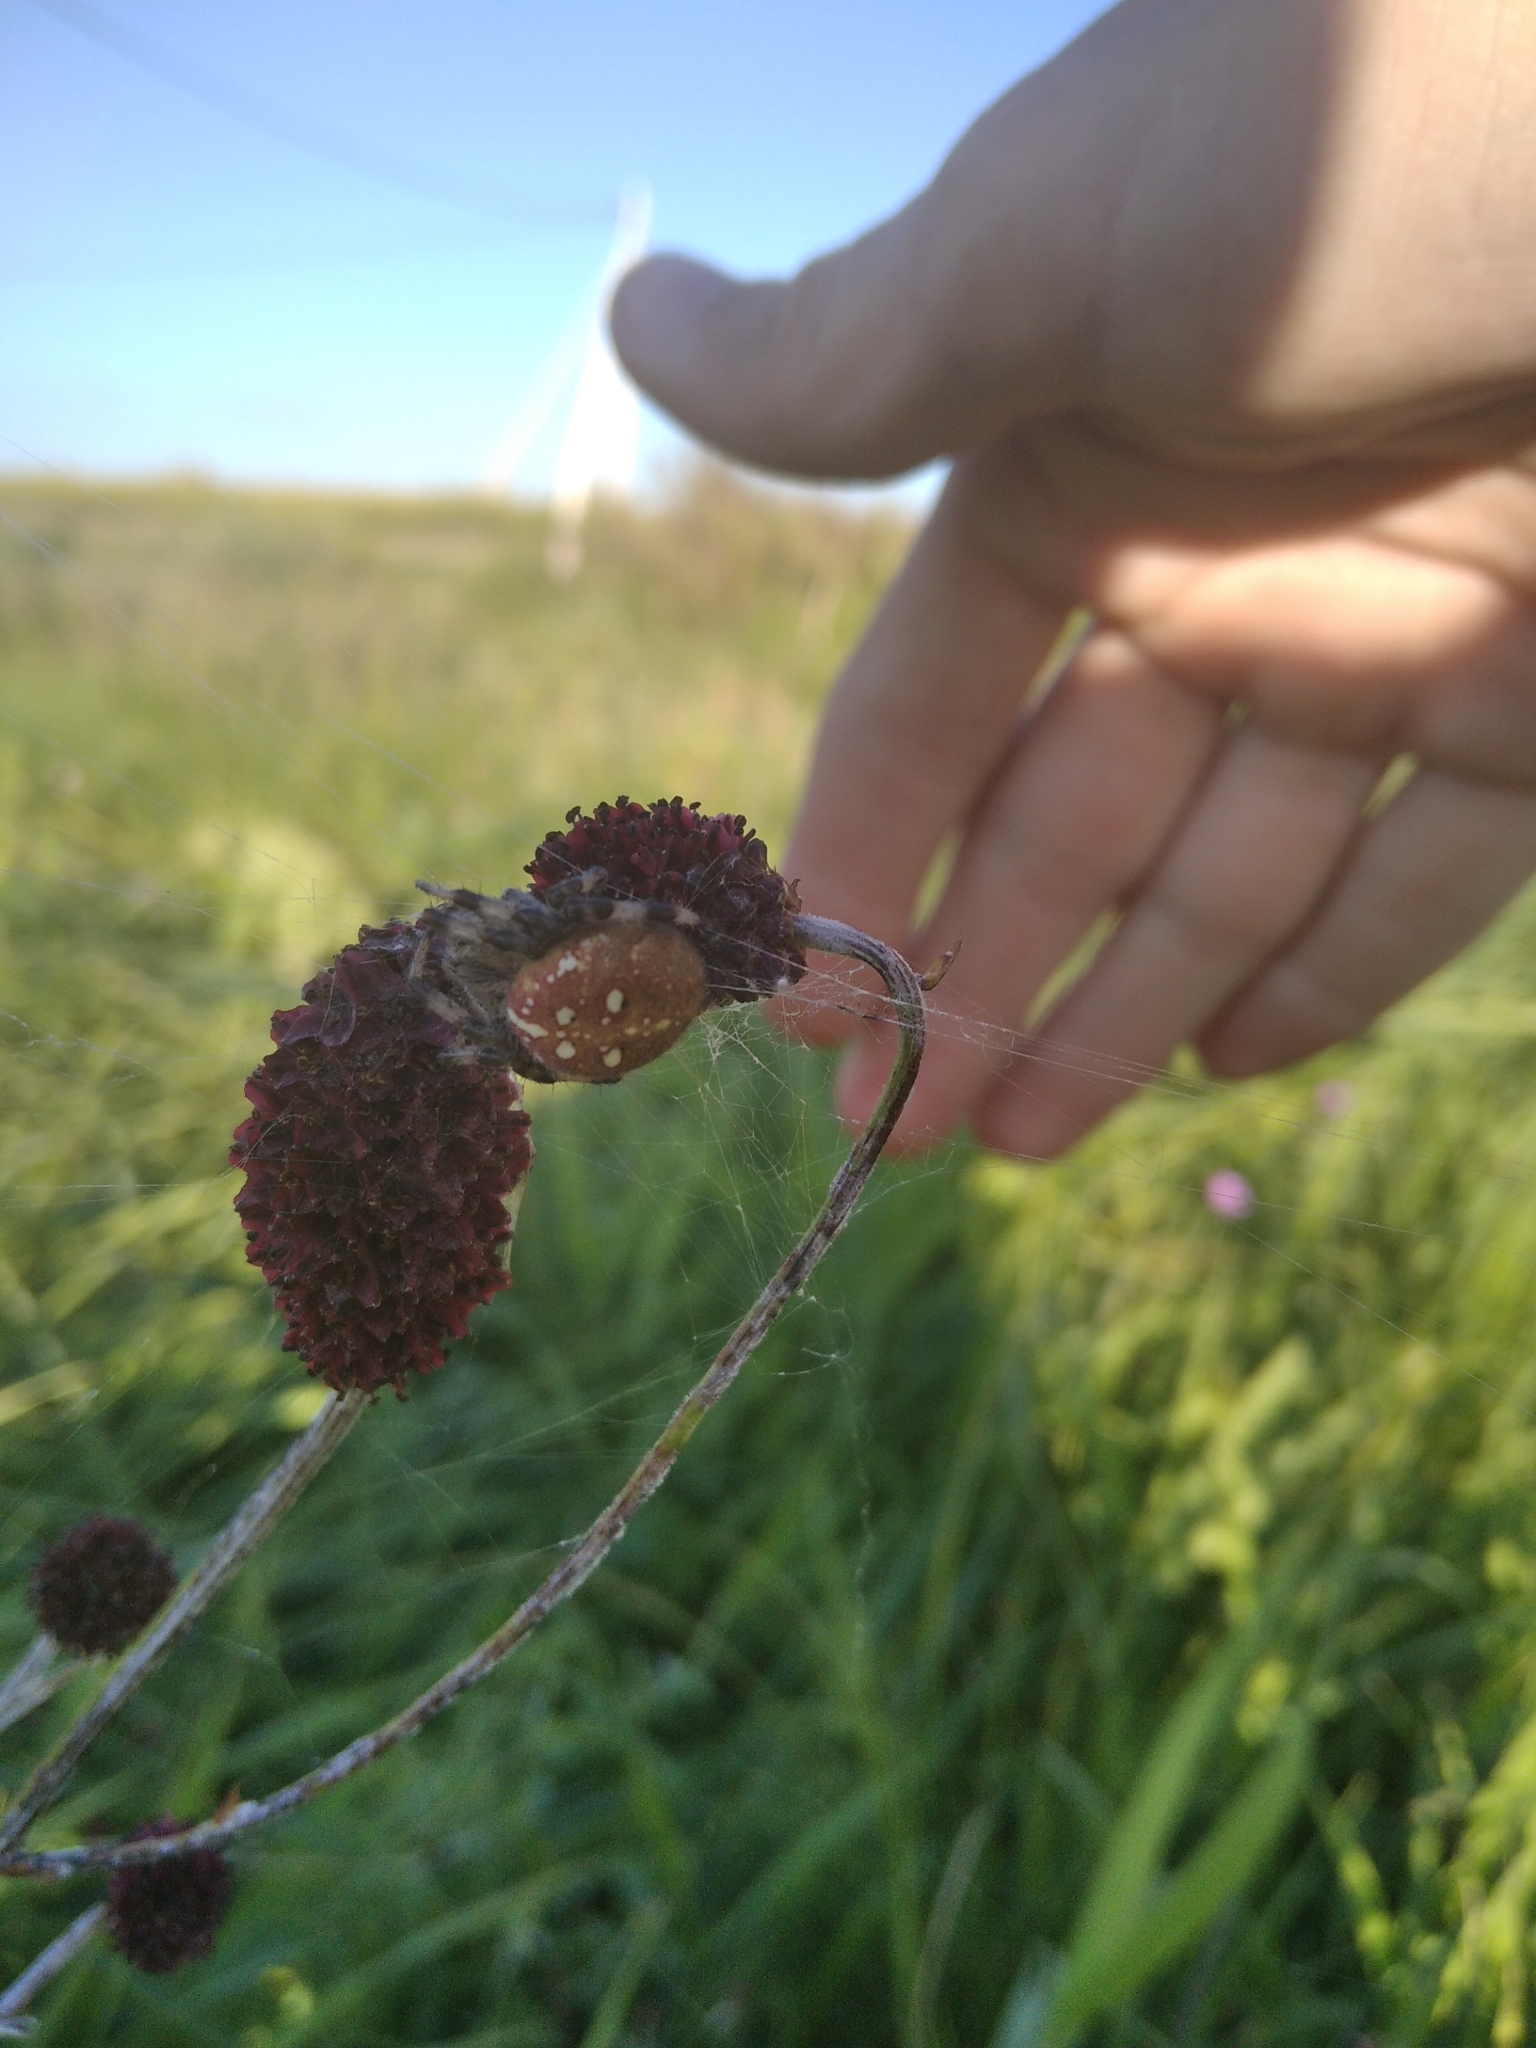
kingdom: Animalia
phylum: Arthropoda
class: Arachnida
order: Araneae
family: Araneidae
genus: Araneus
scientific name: Araneus quadratus
